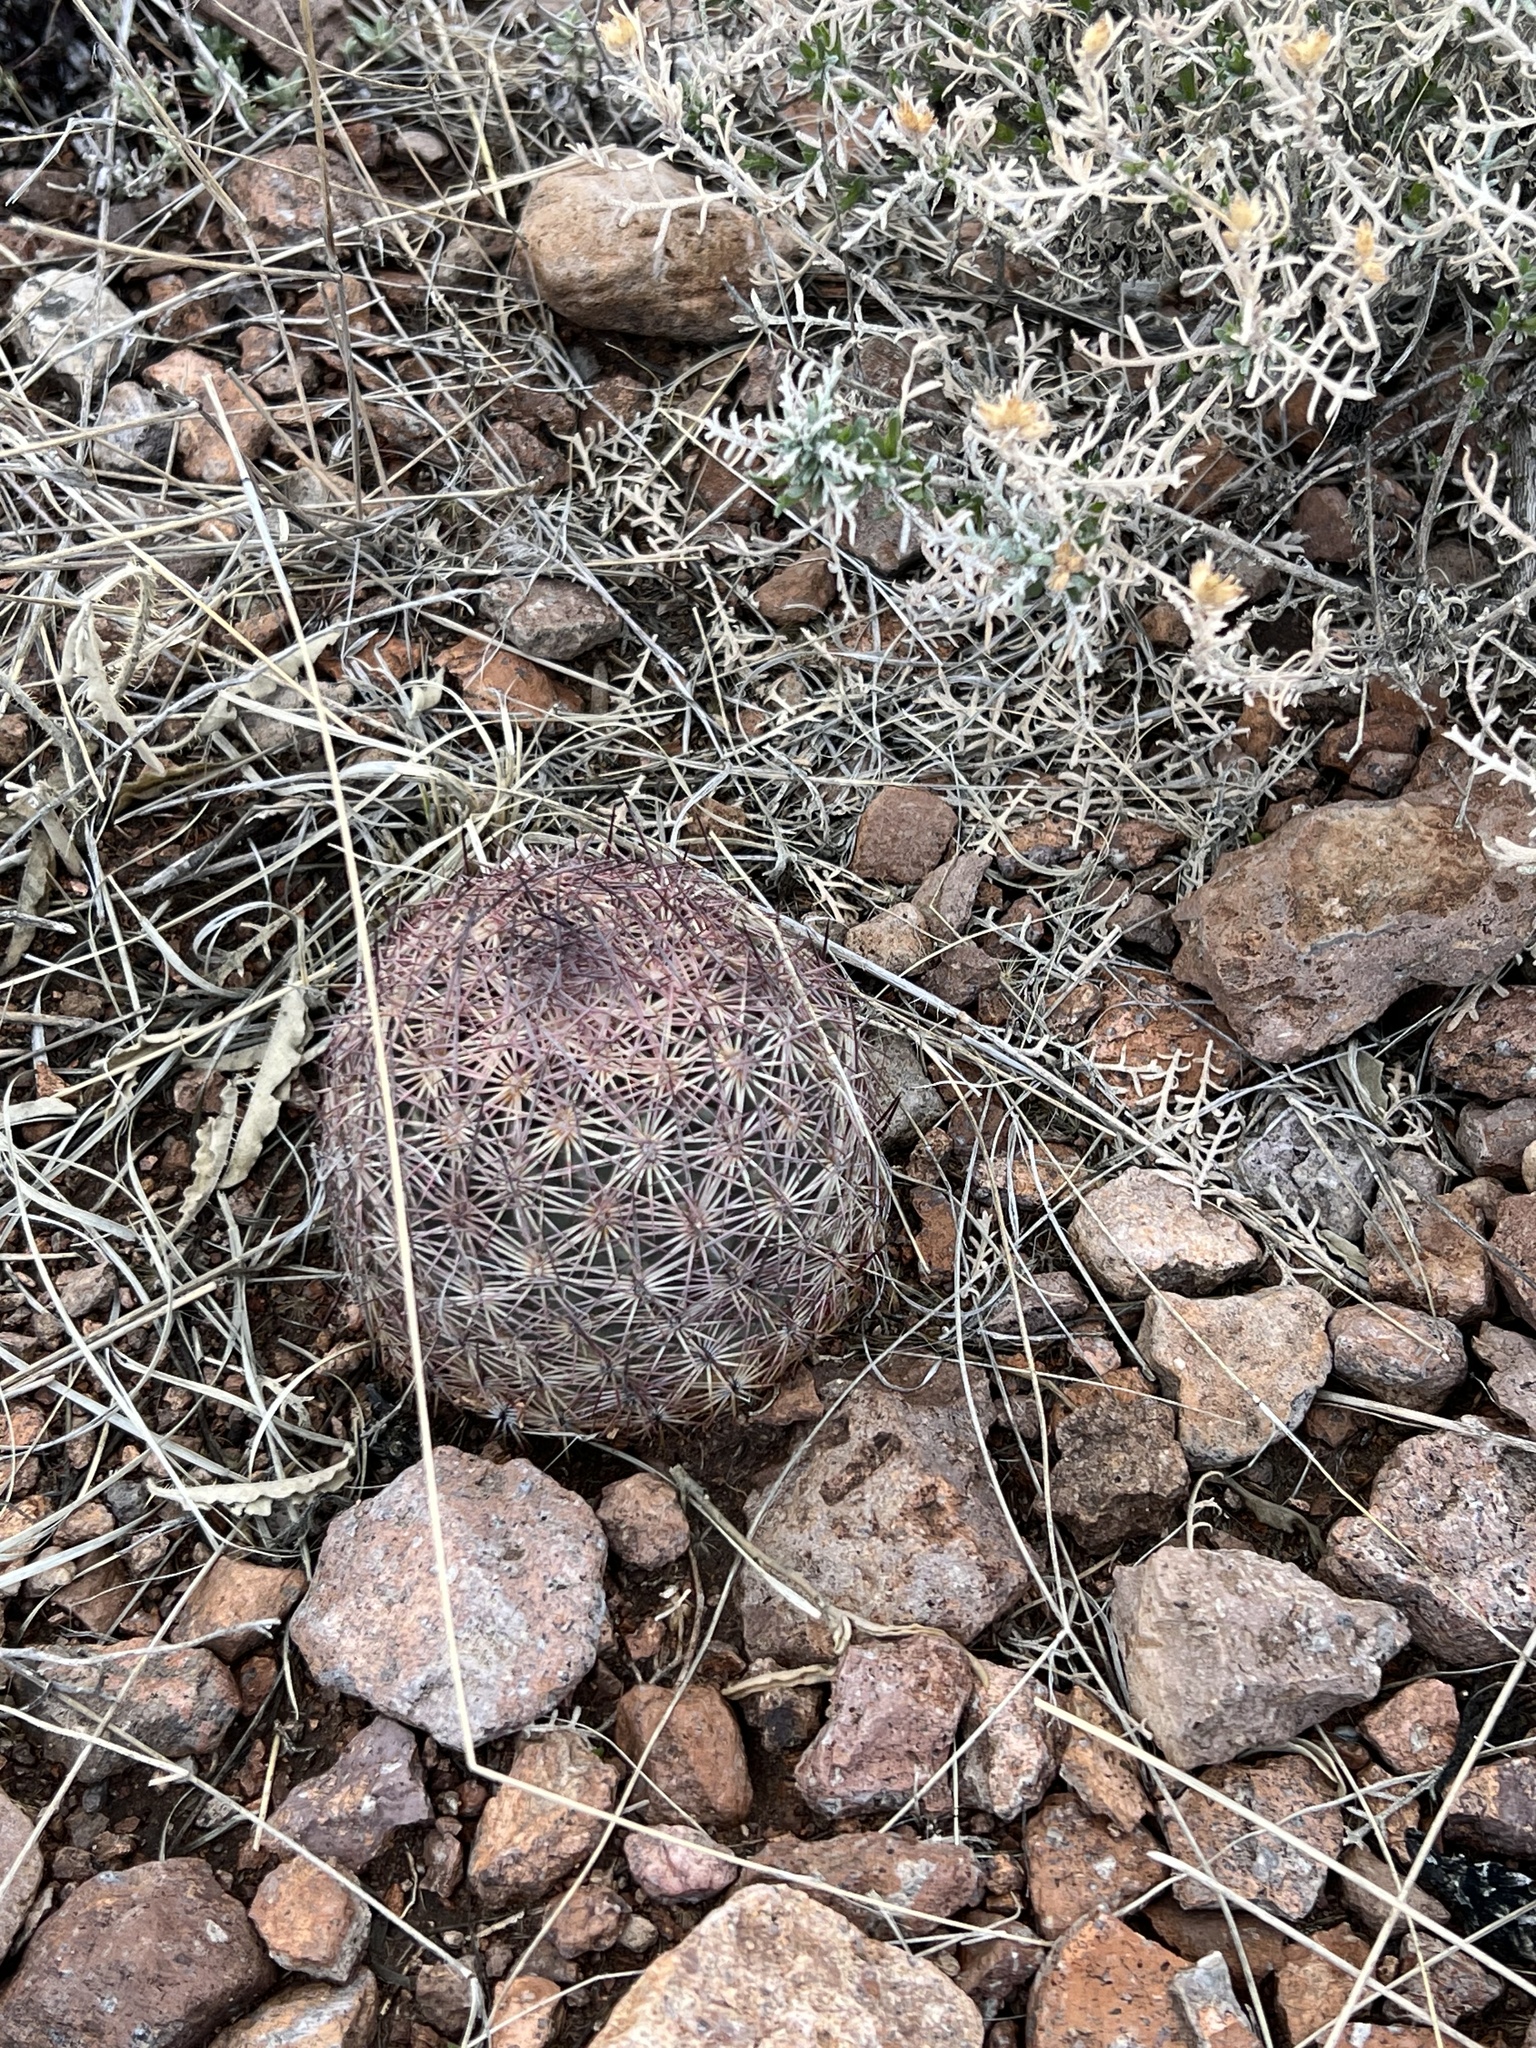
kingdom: Plantae
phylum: Tracheophyta
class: Magnoliopsida
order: Caryophyllales
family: Cactaceae
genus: Sclerocactus
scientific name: Sclerocactus johnsonii
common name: Eight-spine fishhook cactus
